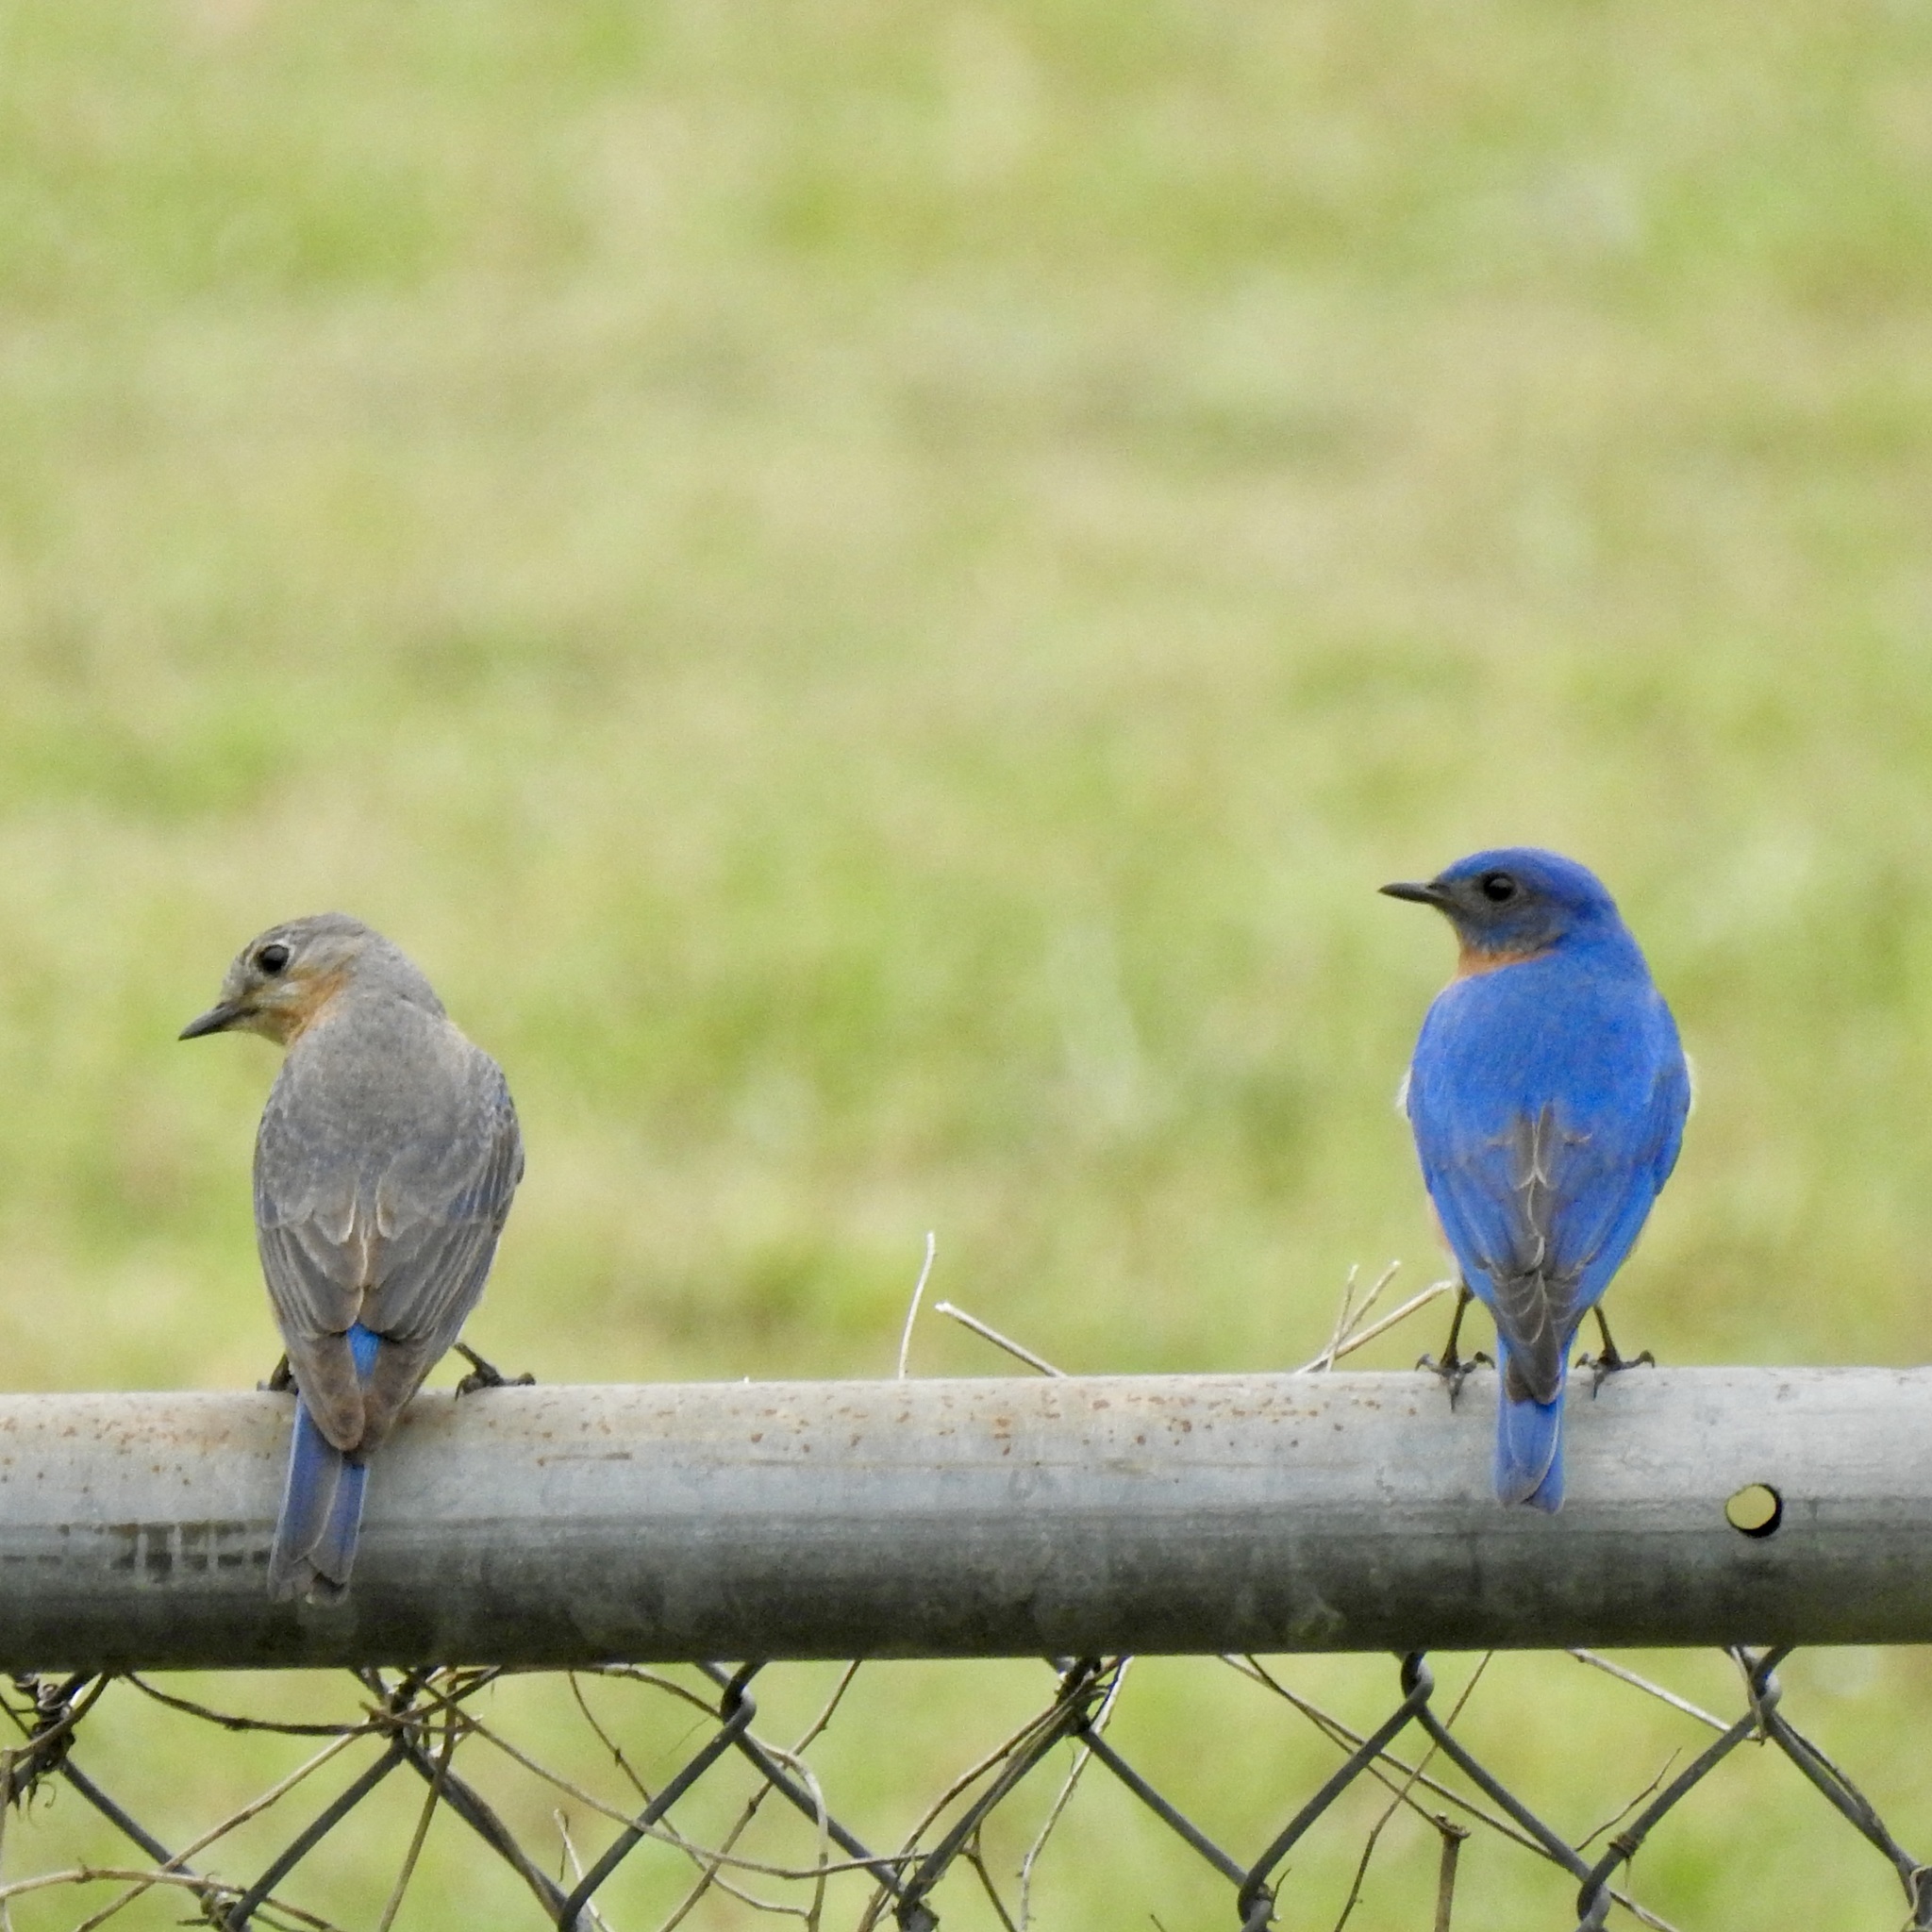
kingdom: Animalia
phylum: Chordata
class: Aves
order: Passeriformes
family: Turdidae
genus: Sialia
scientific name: Sialia sialis
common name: Eastern bluebird
